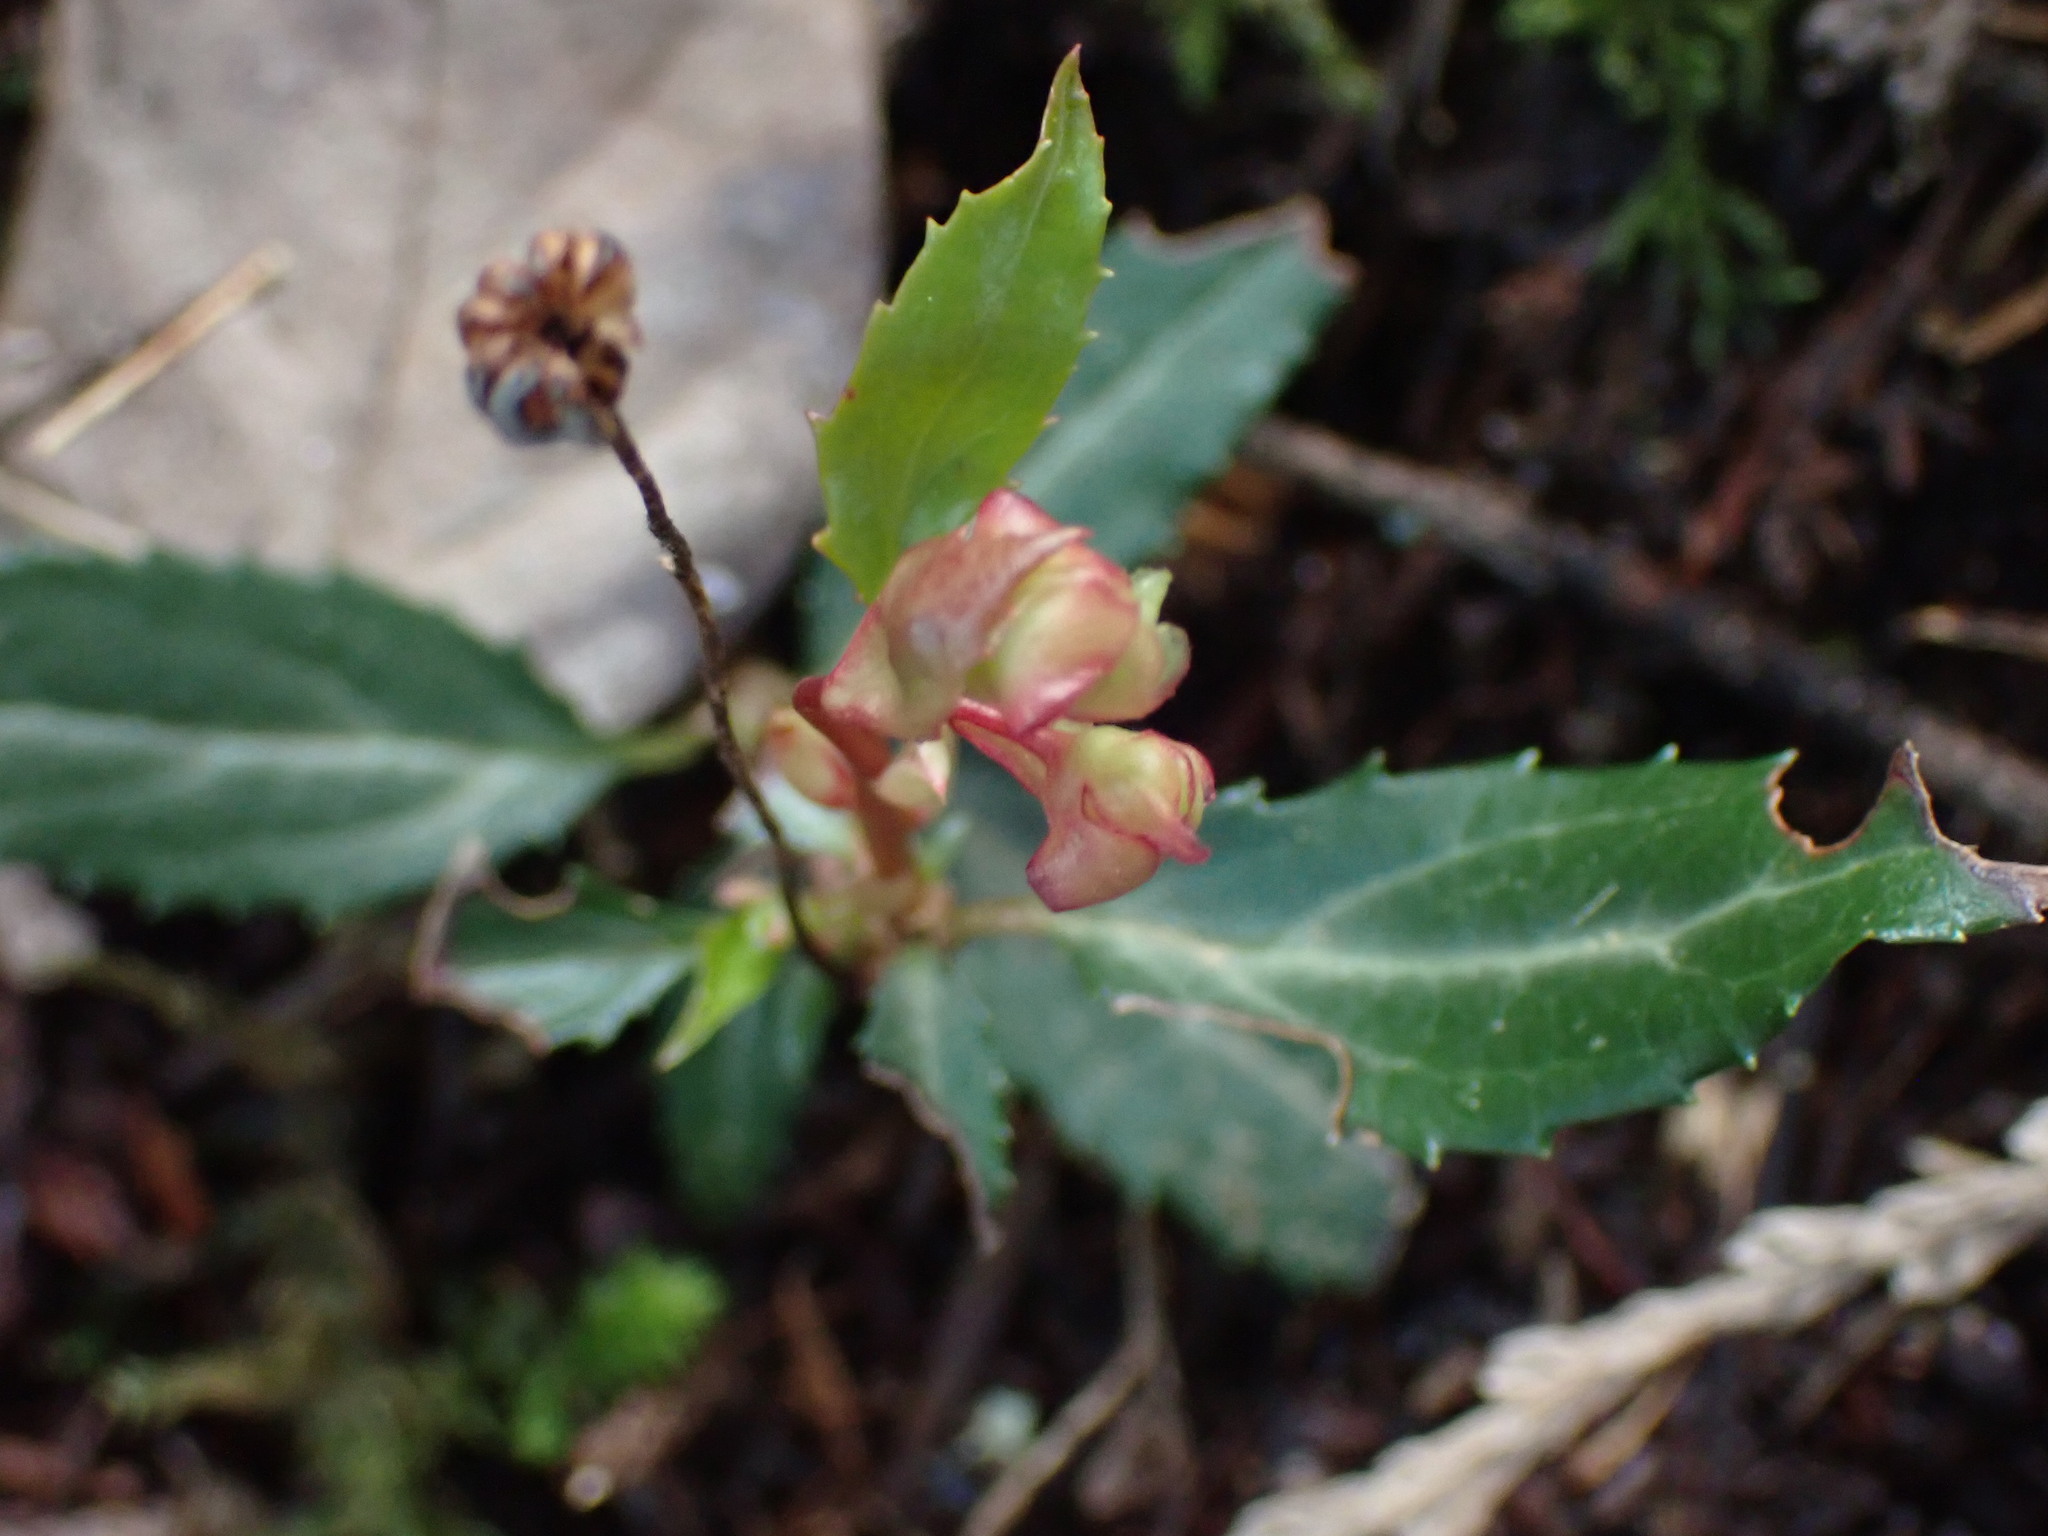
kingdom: Plantae
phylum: Tracheophyta
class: Magnoliopsida
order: Ericales
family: Ericaceae
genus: Chimaphila
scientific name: Chimaphila menziesii
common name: Menzies' pipsissewa
